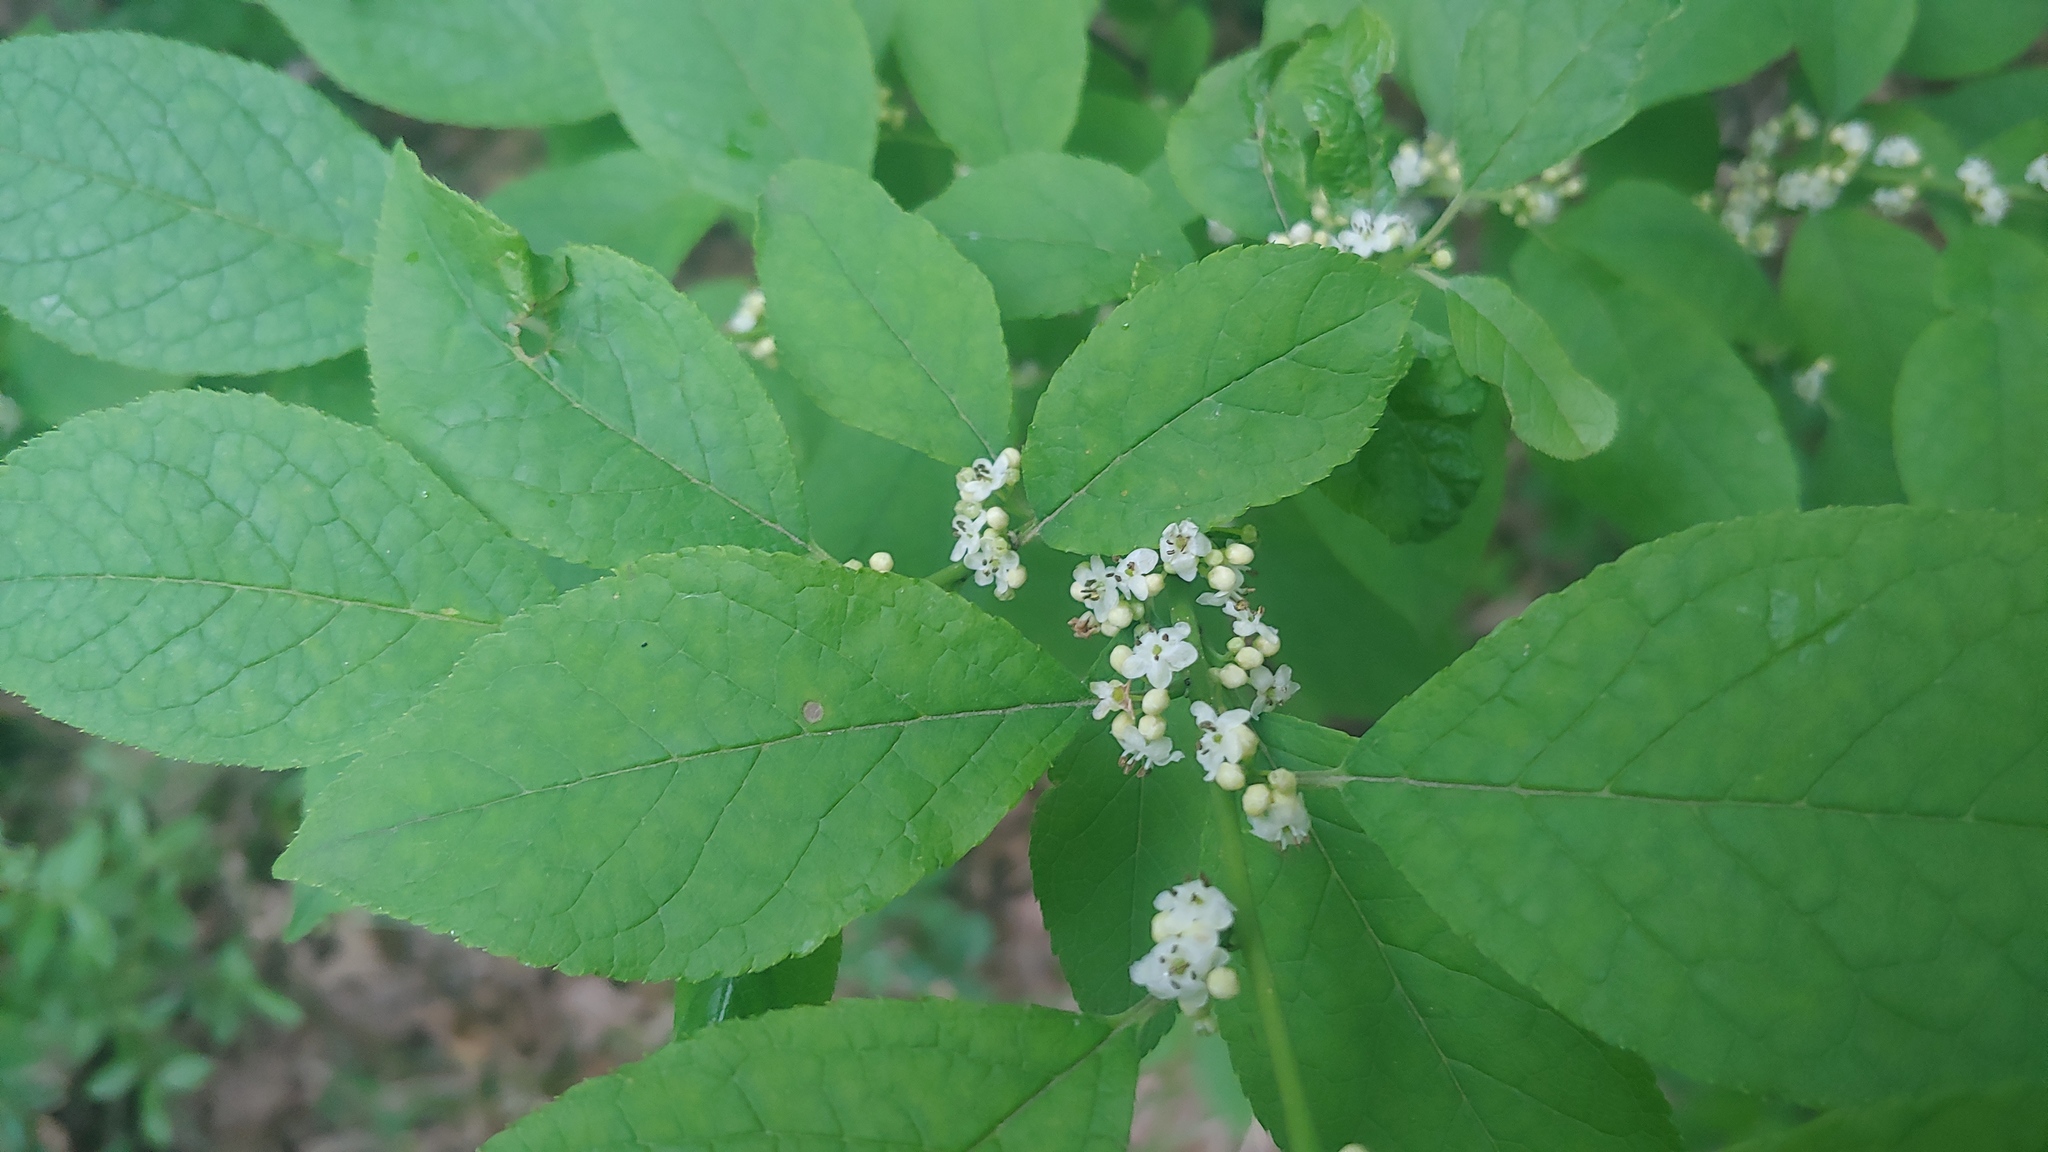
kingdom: Plantae
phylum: Tracheophyta
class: Magnoliopsida
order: Aquifoliales
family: Aquifoliaceae
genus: Ilex
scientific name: Ilex verticillata
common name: Virginia winterberry
